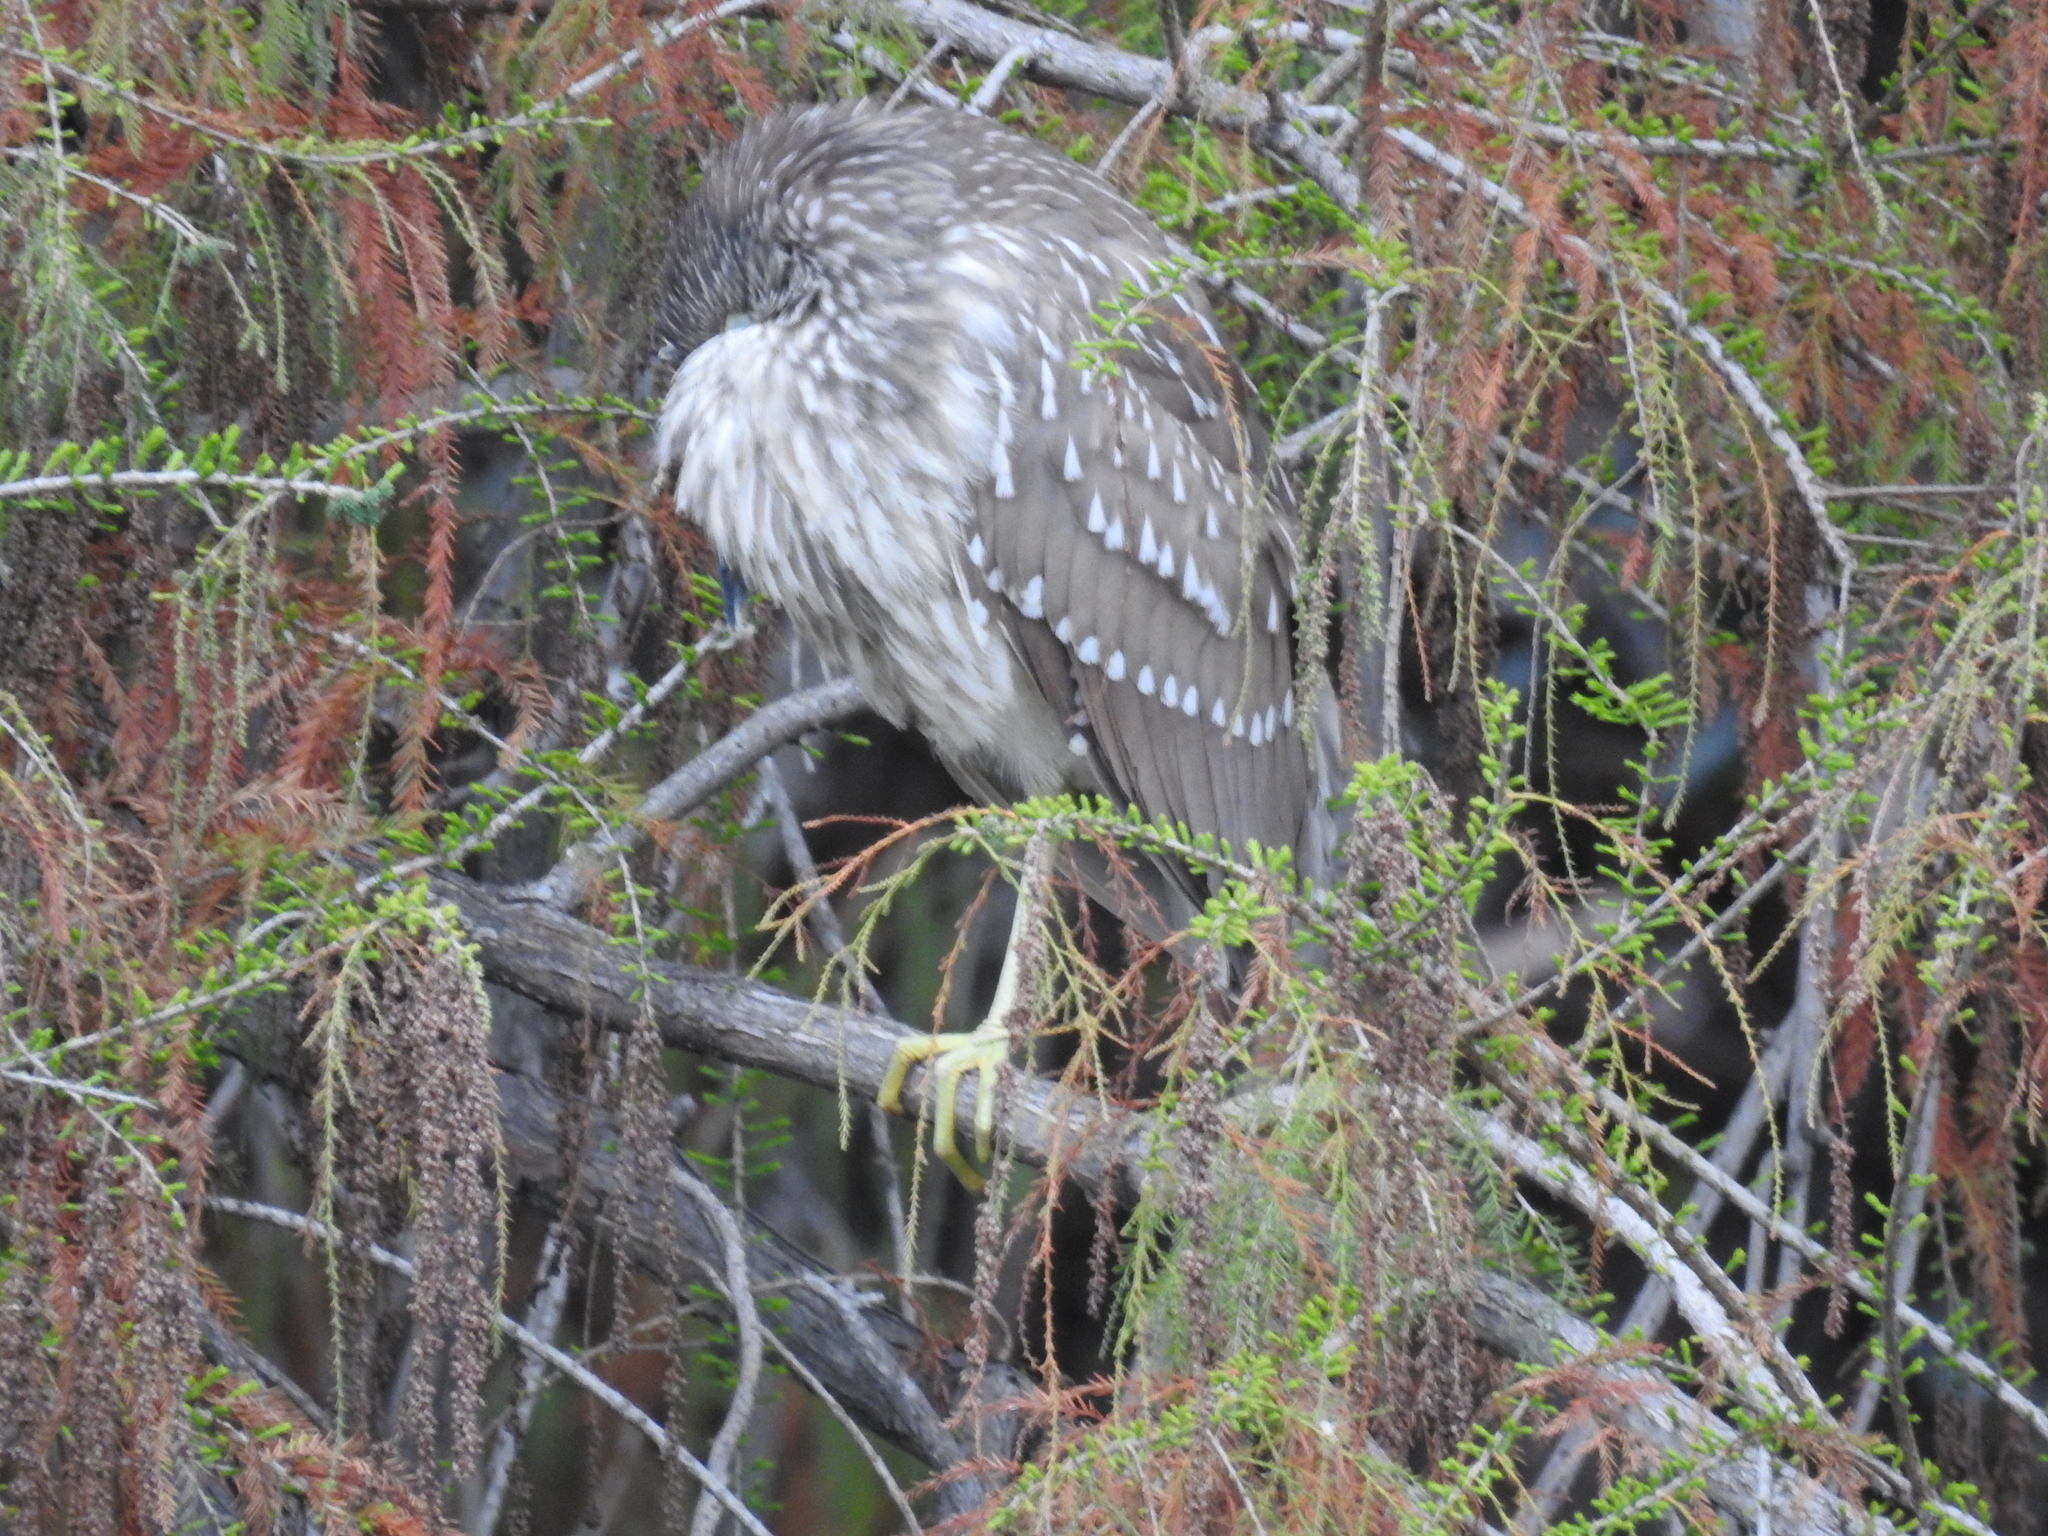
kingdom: Animalia
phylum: Chordata
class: Aves
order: Pelecaniformes
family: Ardeidae
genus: Nycticorax
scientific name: Nycticorax nycticorax
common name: Black-crowned night heron
